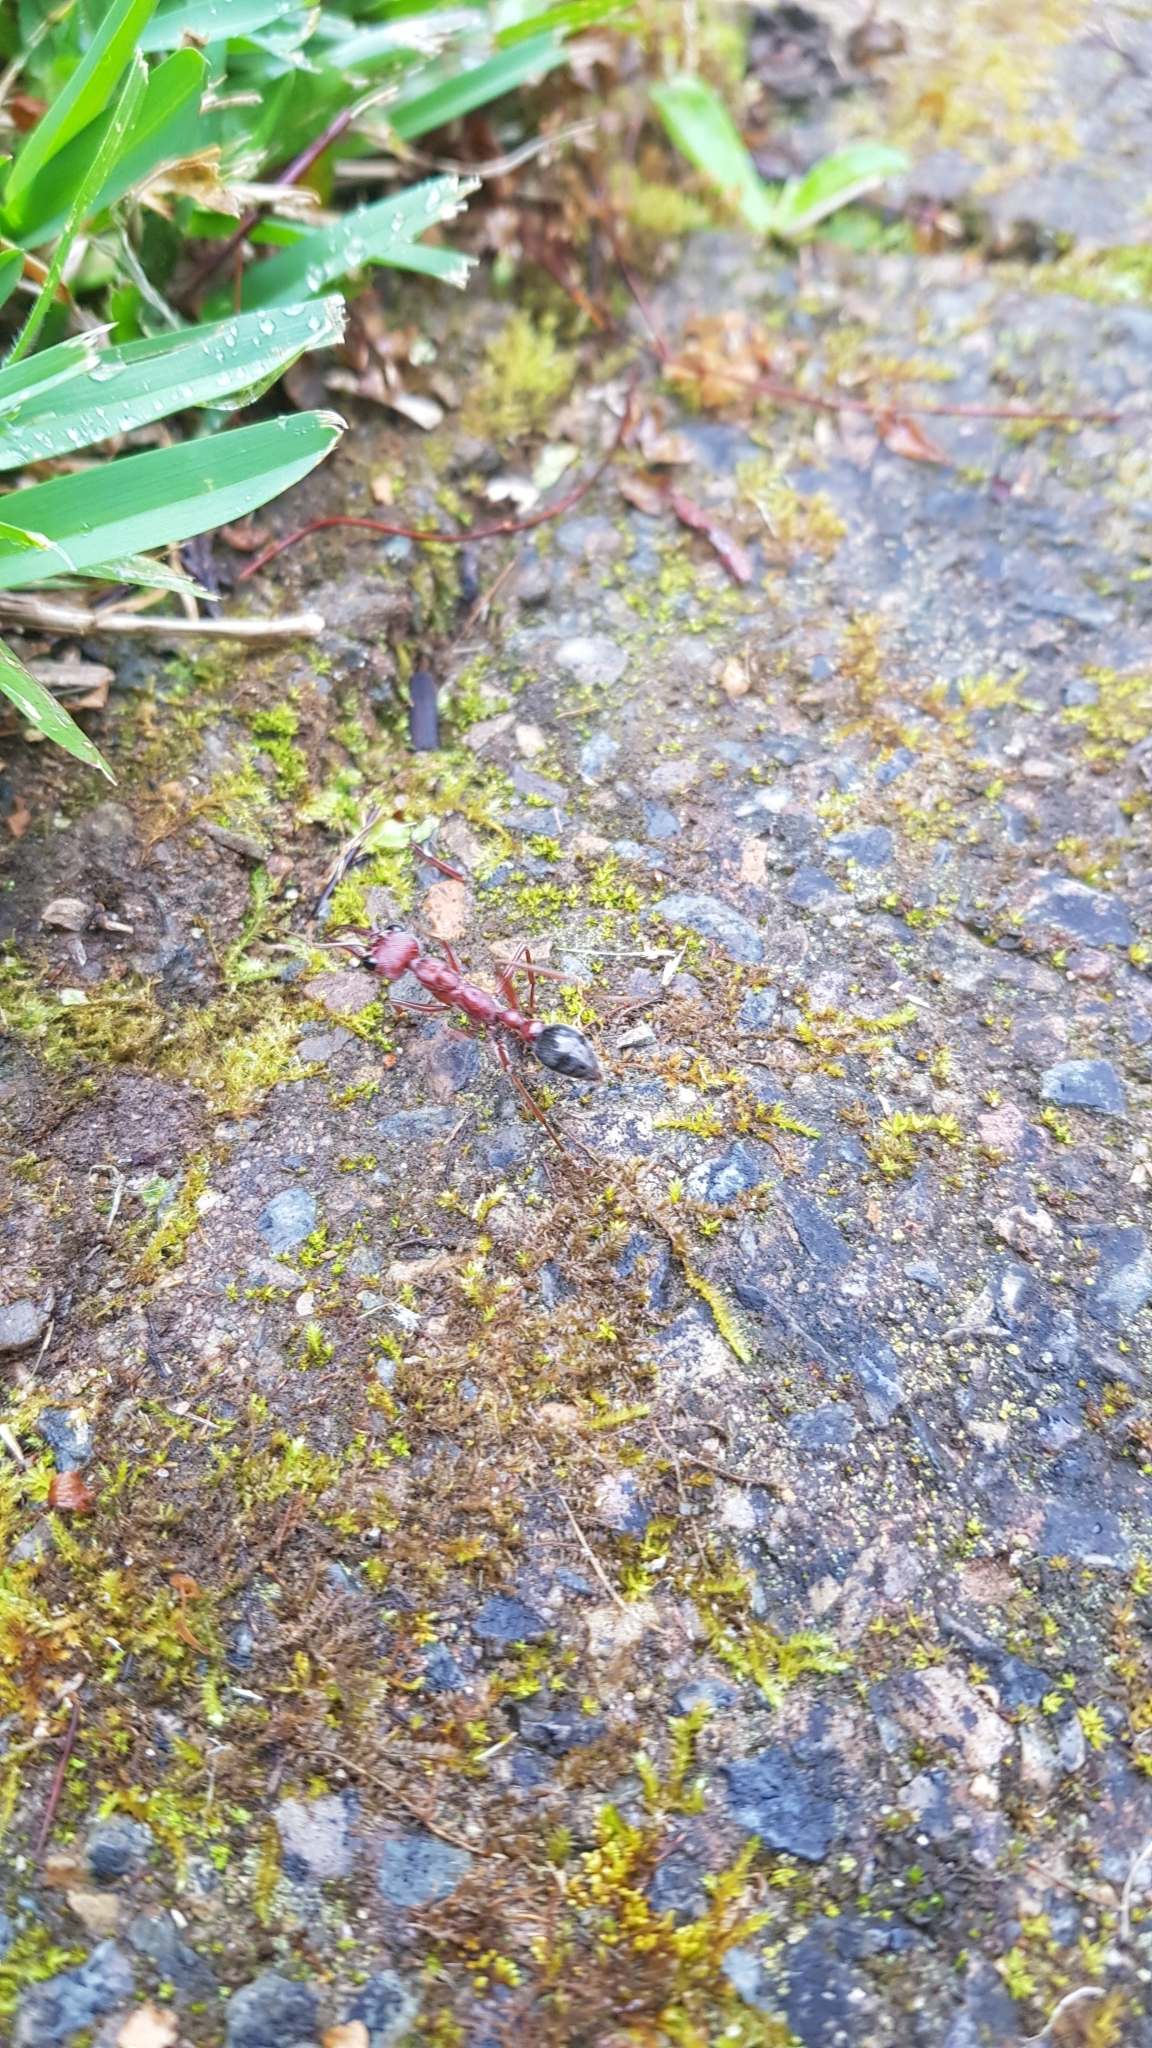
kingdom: Animalia
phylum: Arthropoda
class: Insecta
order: Hymenoptera
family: Formicidae
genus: Myrmecia
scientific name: Myrmecia brevinoda
